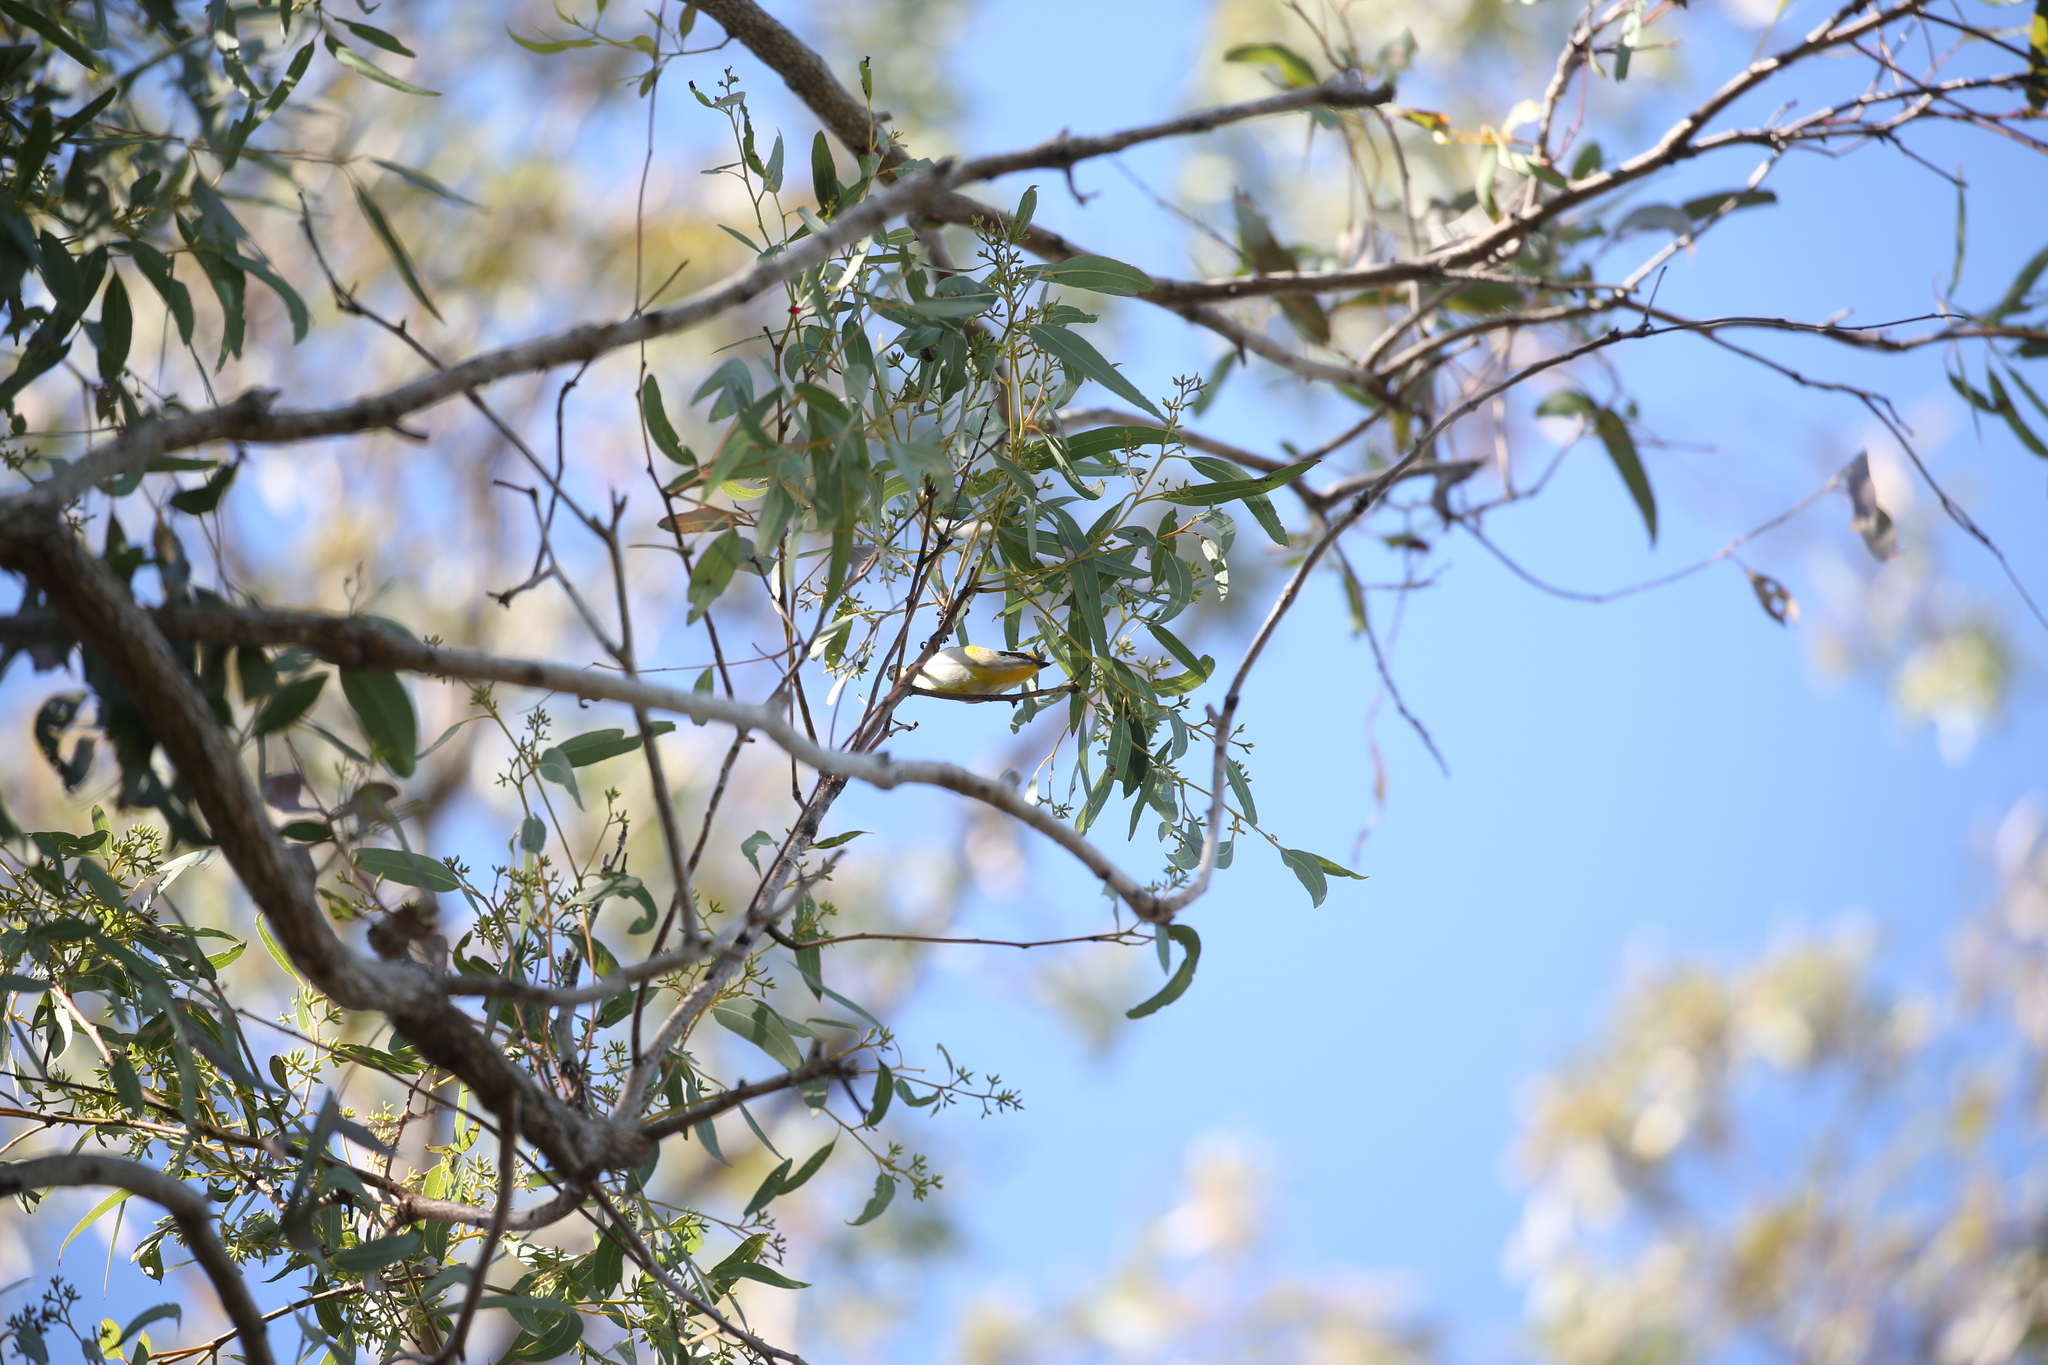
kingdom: Animalia
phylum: Chordata
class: Aves
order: Passeriformes
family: Pardalotidae
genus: Pardalotus
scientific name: Pardalotus striatus
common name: Striated pardalote
